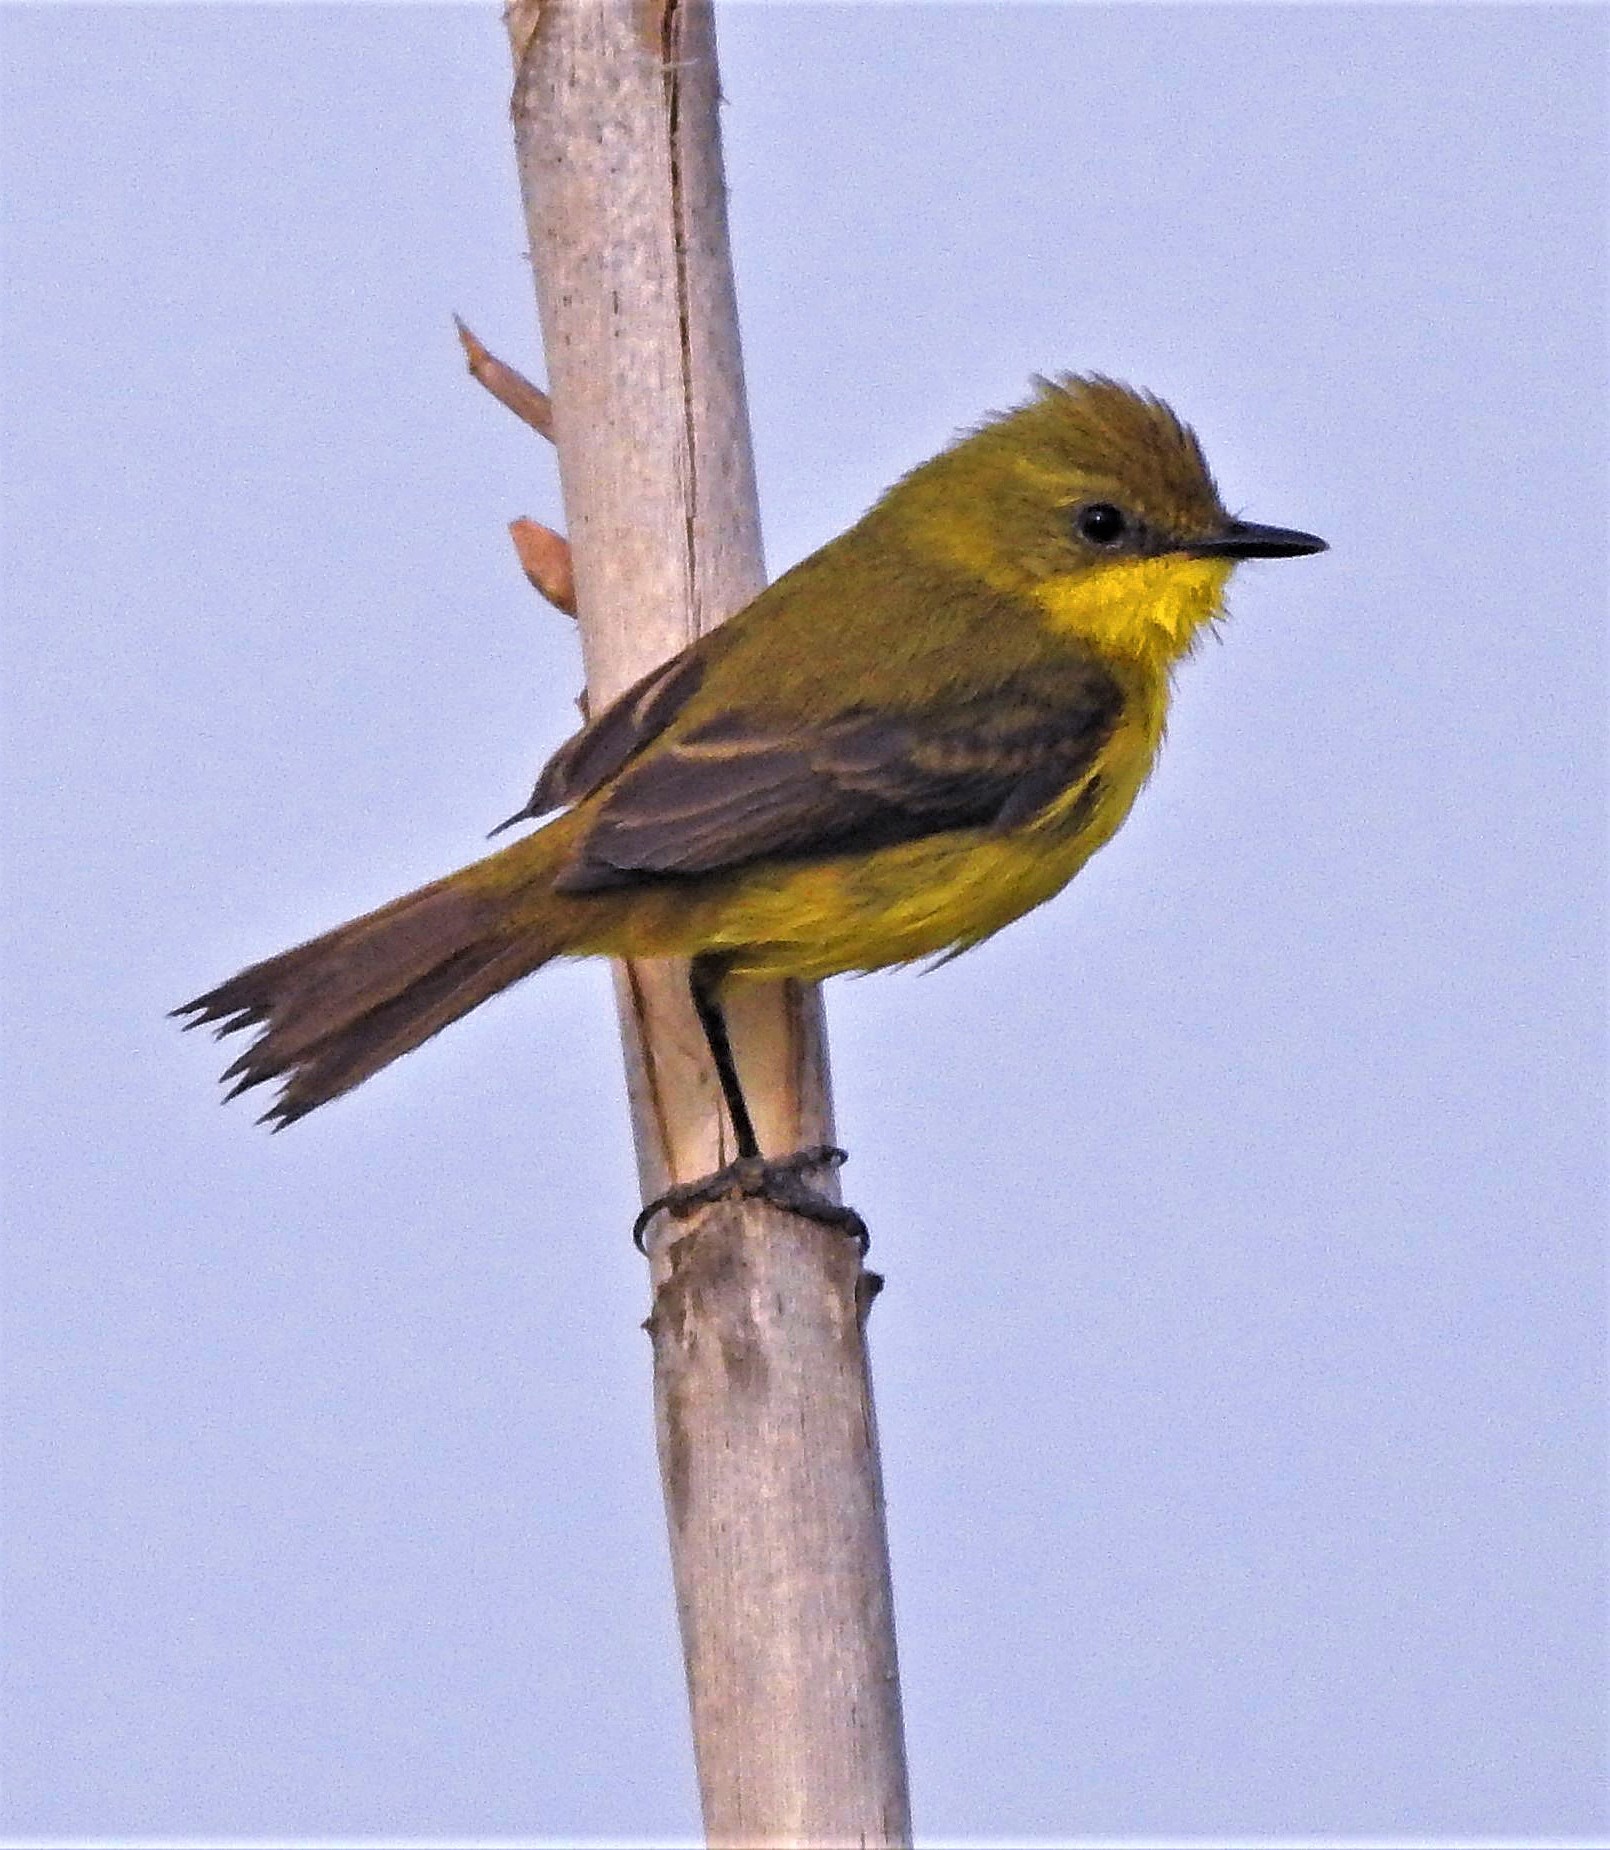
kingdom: Animalia
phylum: Chordata
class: Aves
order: Passeriformes
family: Tyrannidae
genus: Pseudocolopteryx
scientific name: Pseudocolopteryx acutipennis
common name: Subtropical doradito
